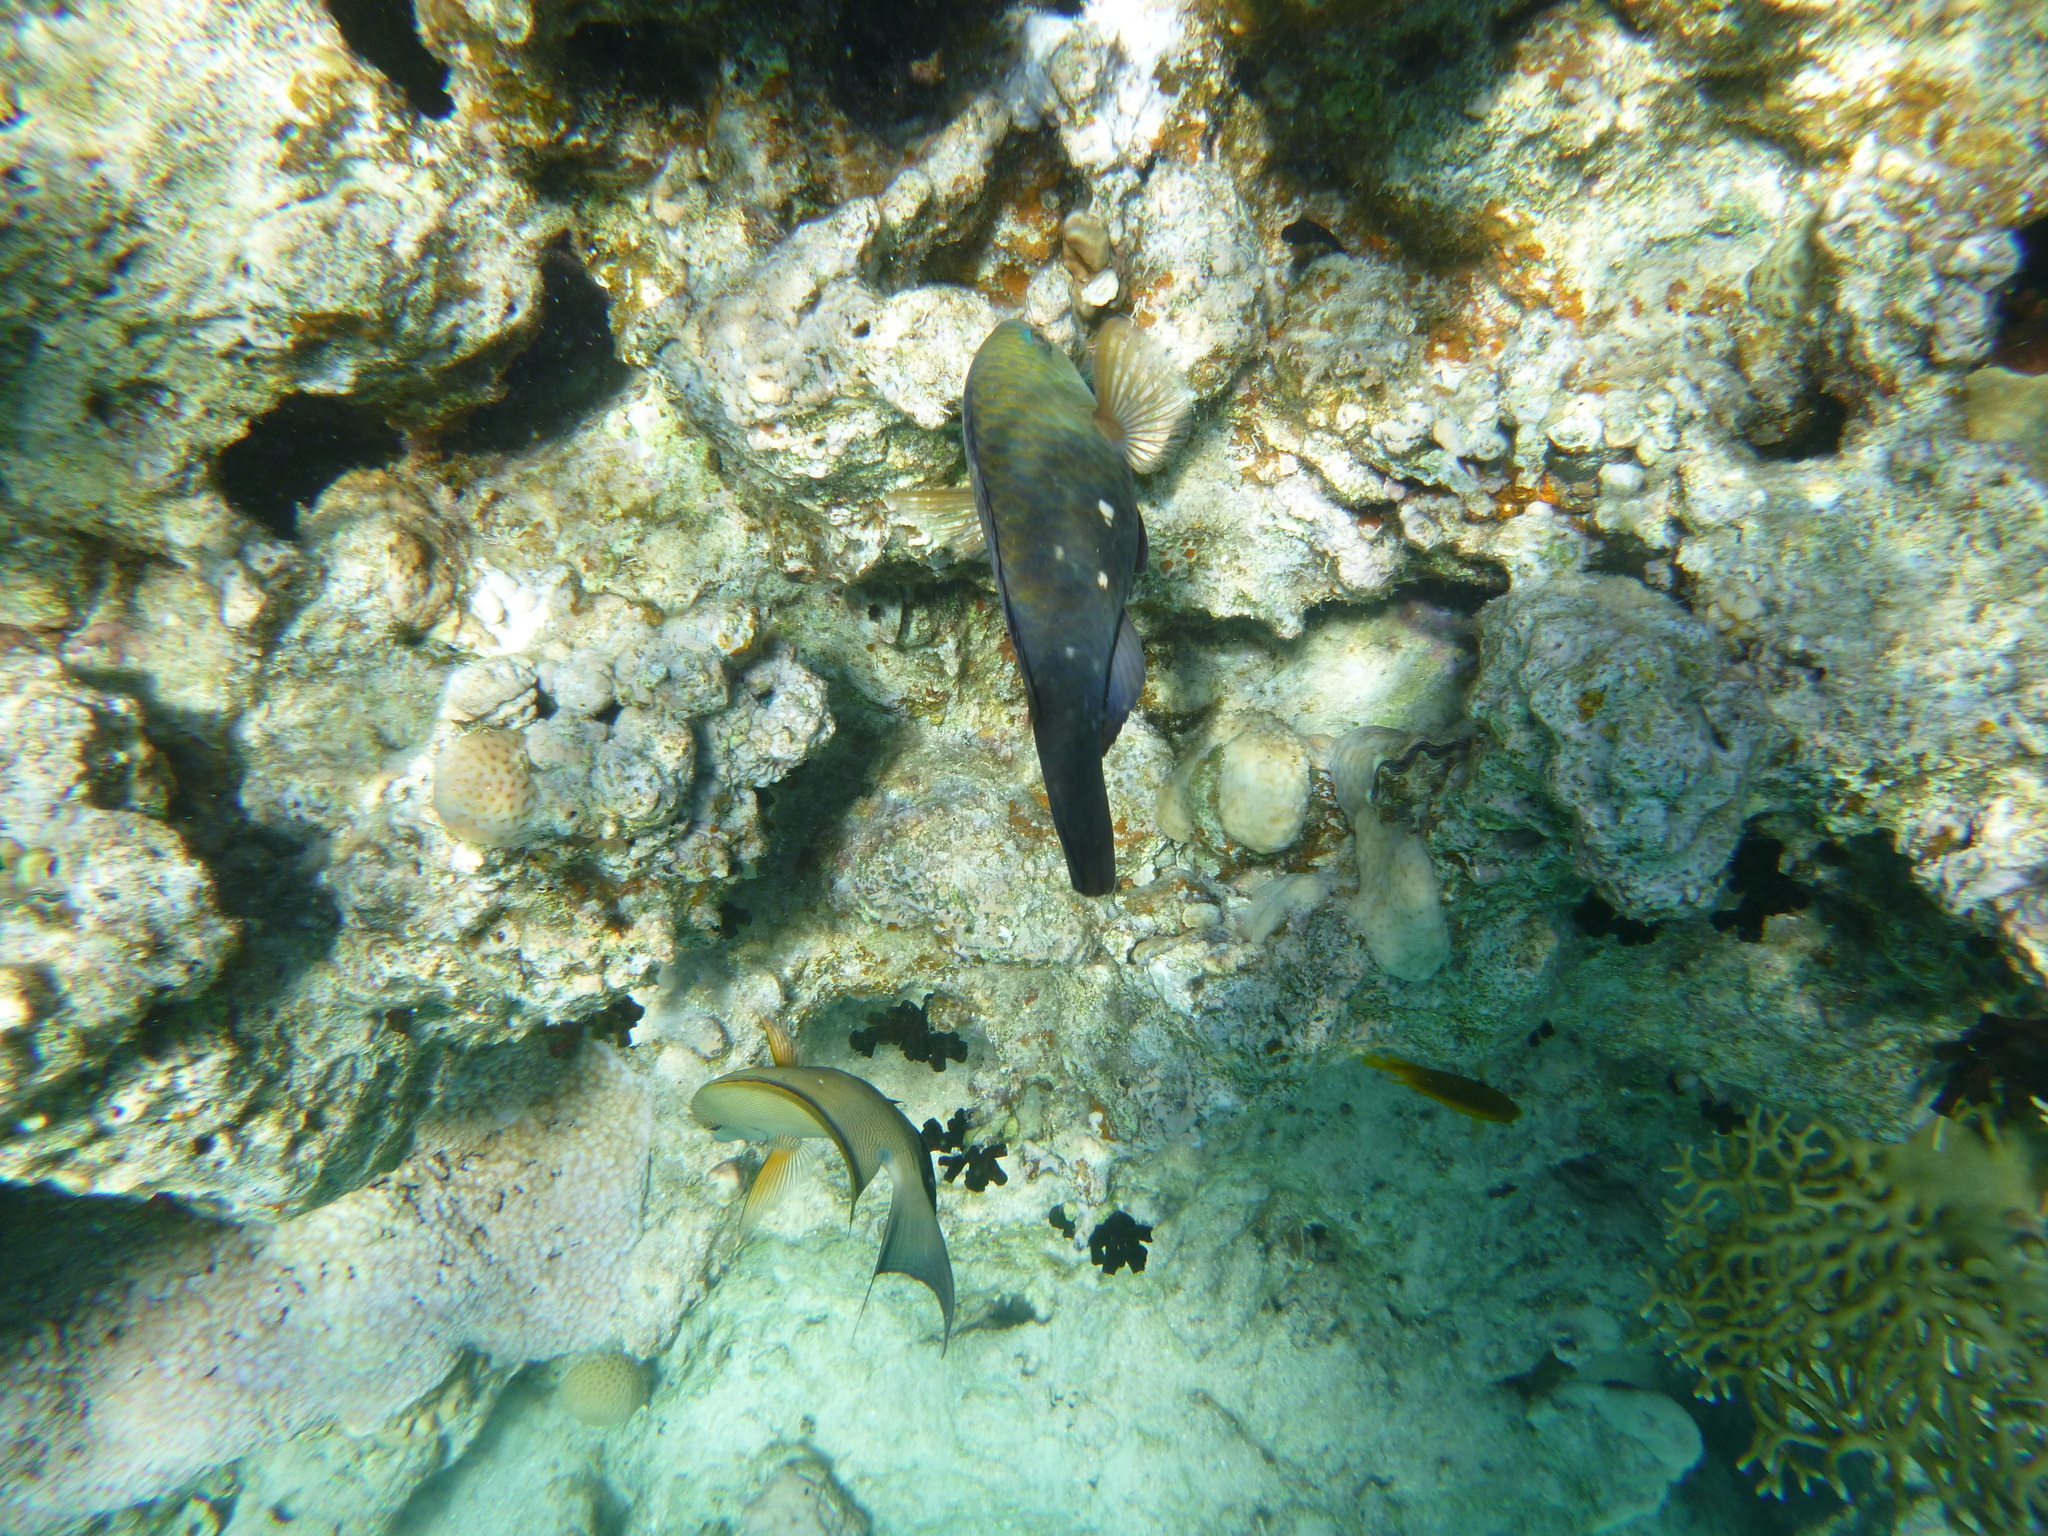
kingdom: Animalia
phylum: Chordata
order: Perciformes
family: Acanthuridae
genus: Ctenochaetus
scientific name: Ctenochaetus striatus
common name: Bristle-toothed surgeonfish
